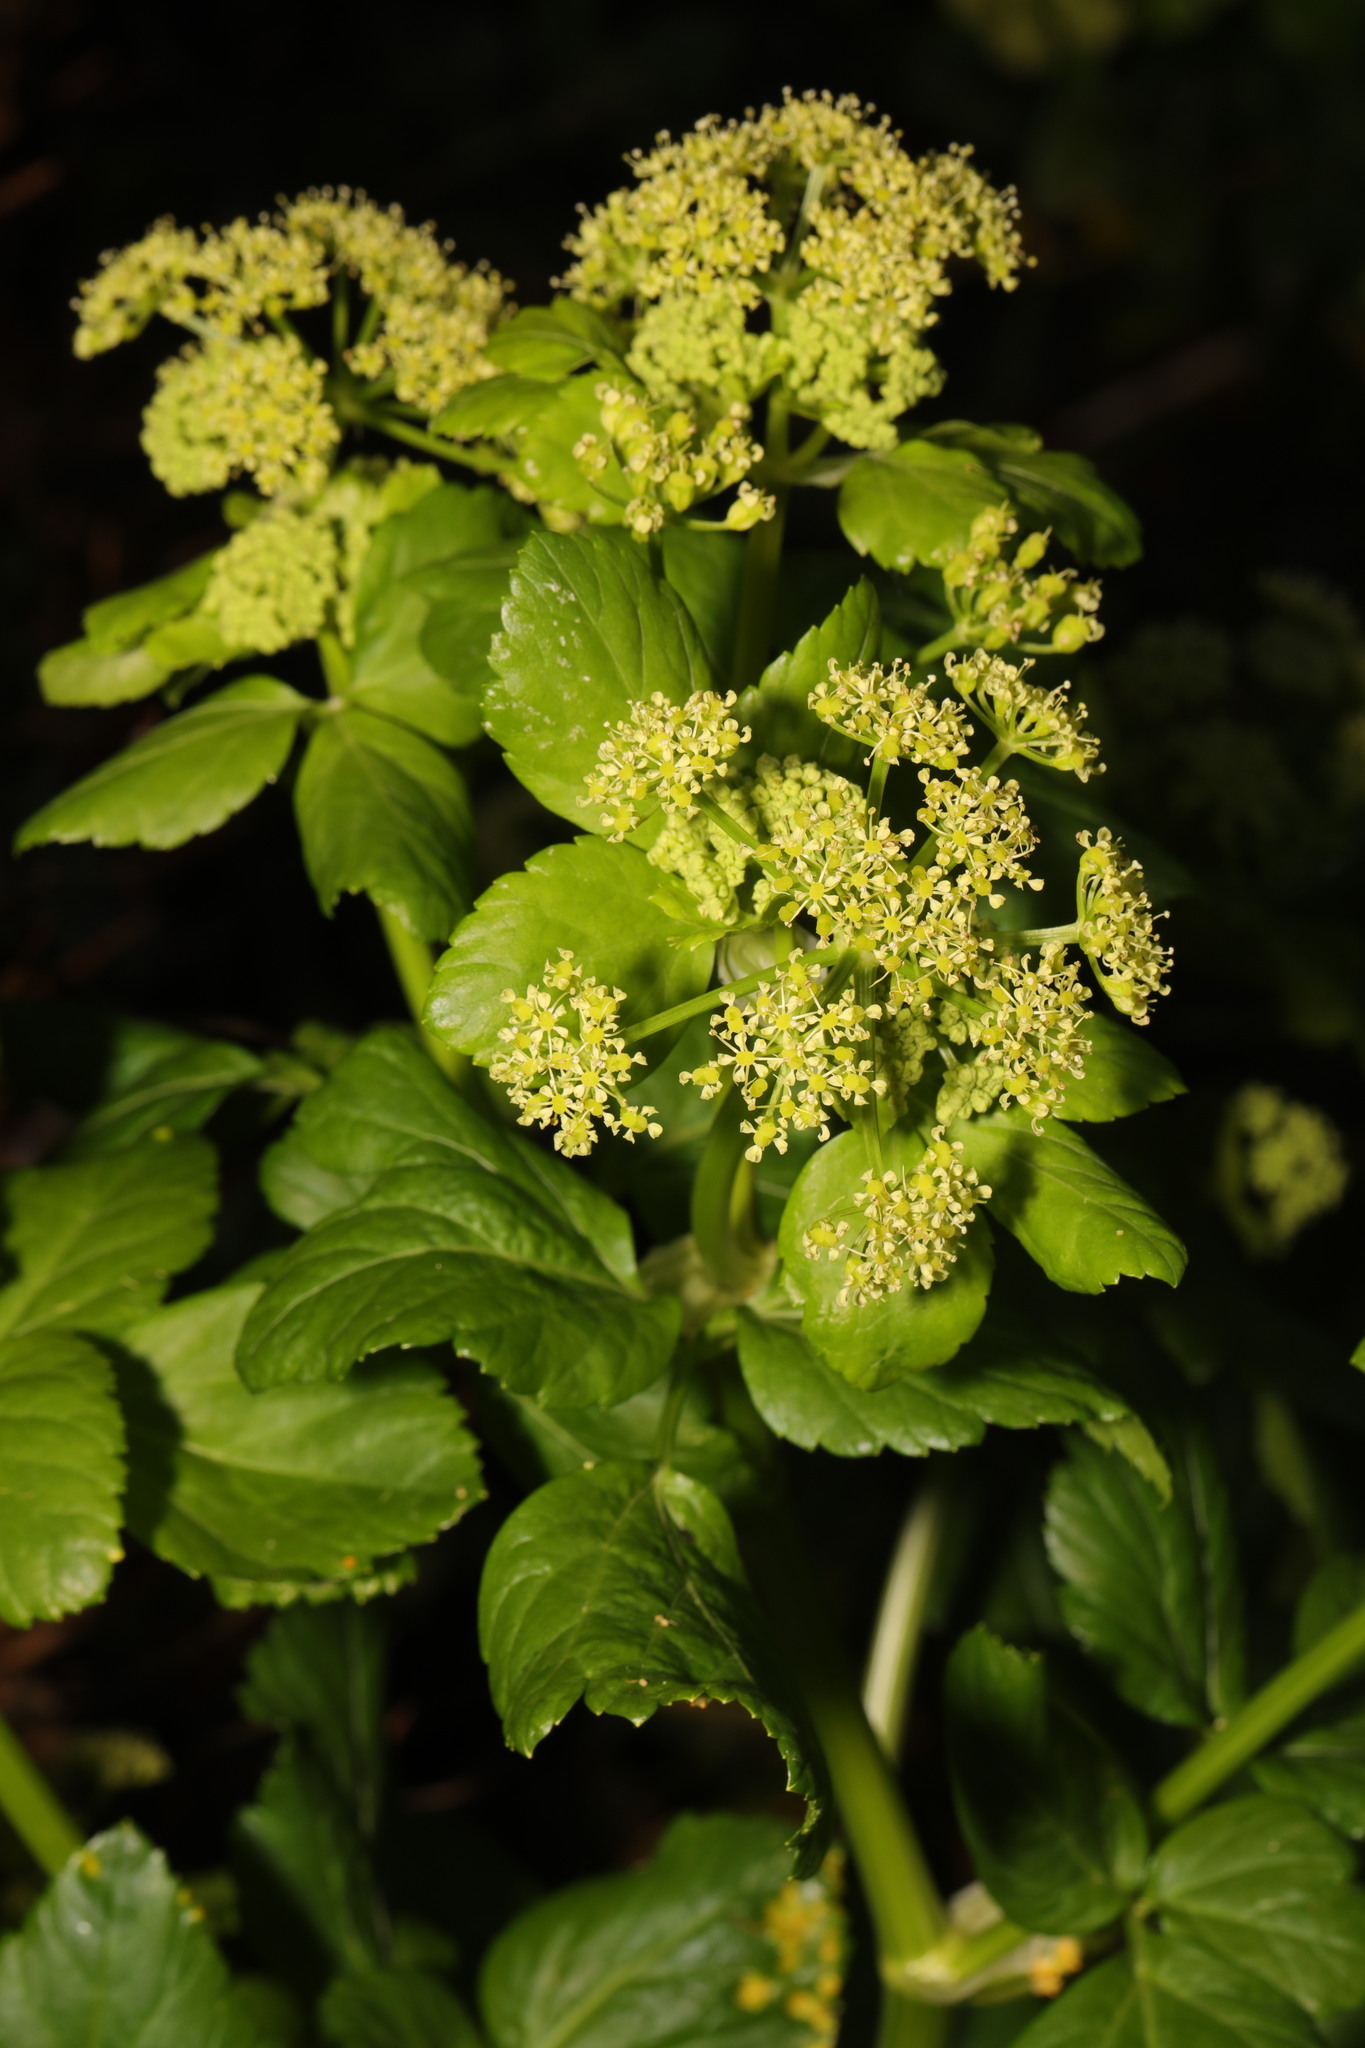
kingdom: Plantae
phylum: Tracheophyta
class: Magnoliopsida
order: Apiales
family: Apiaceae
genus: Smyrnium
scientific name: Smyrnium olusatrum
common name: Alexanders
